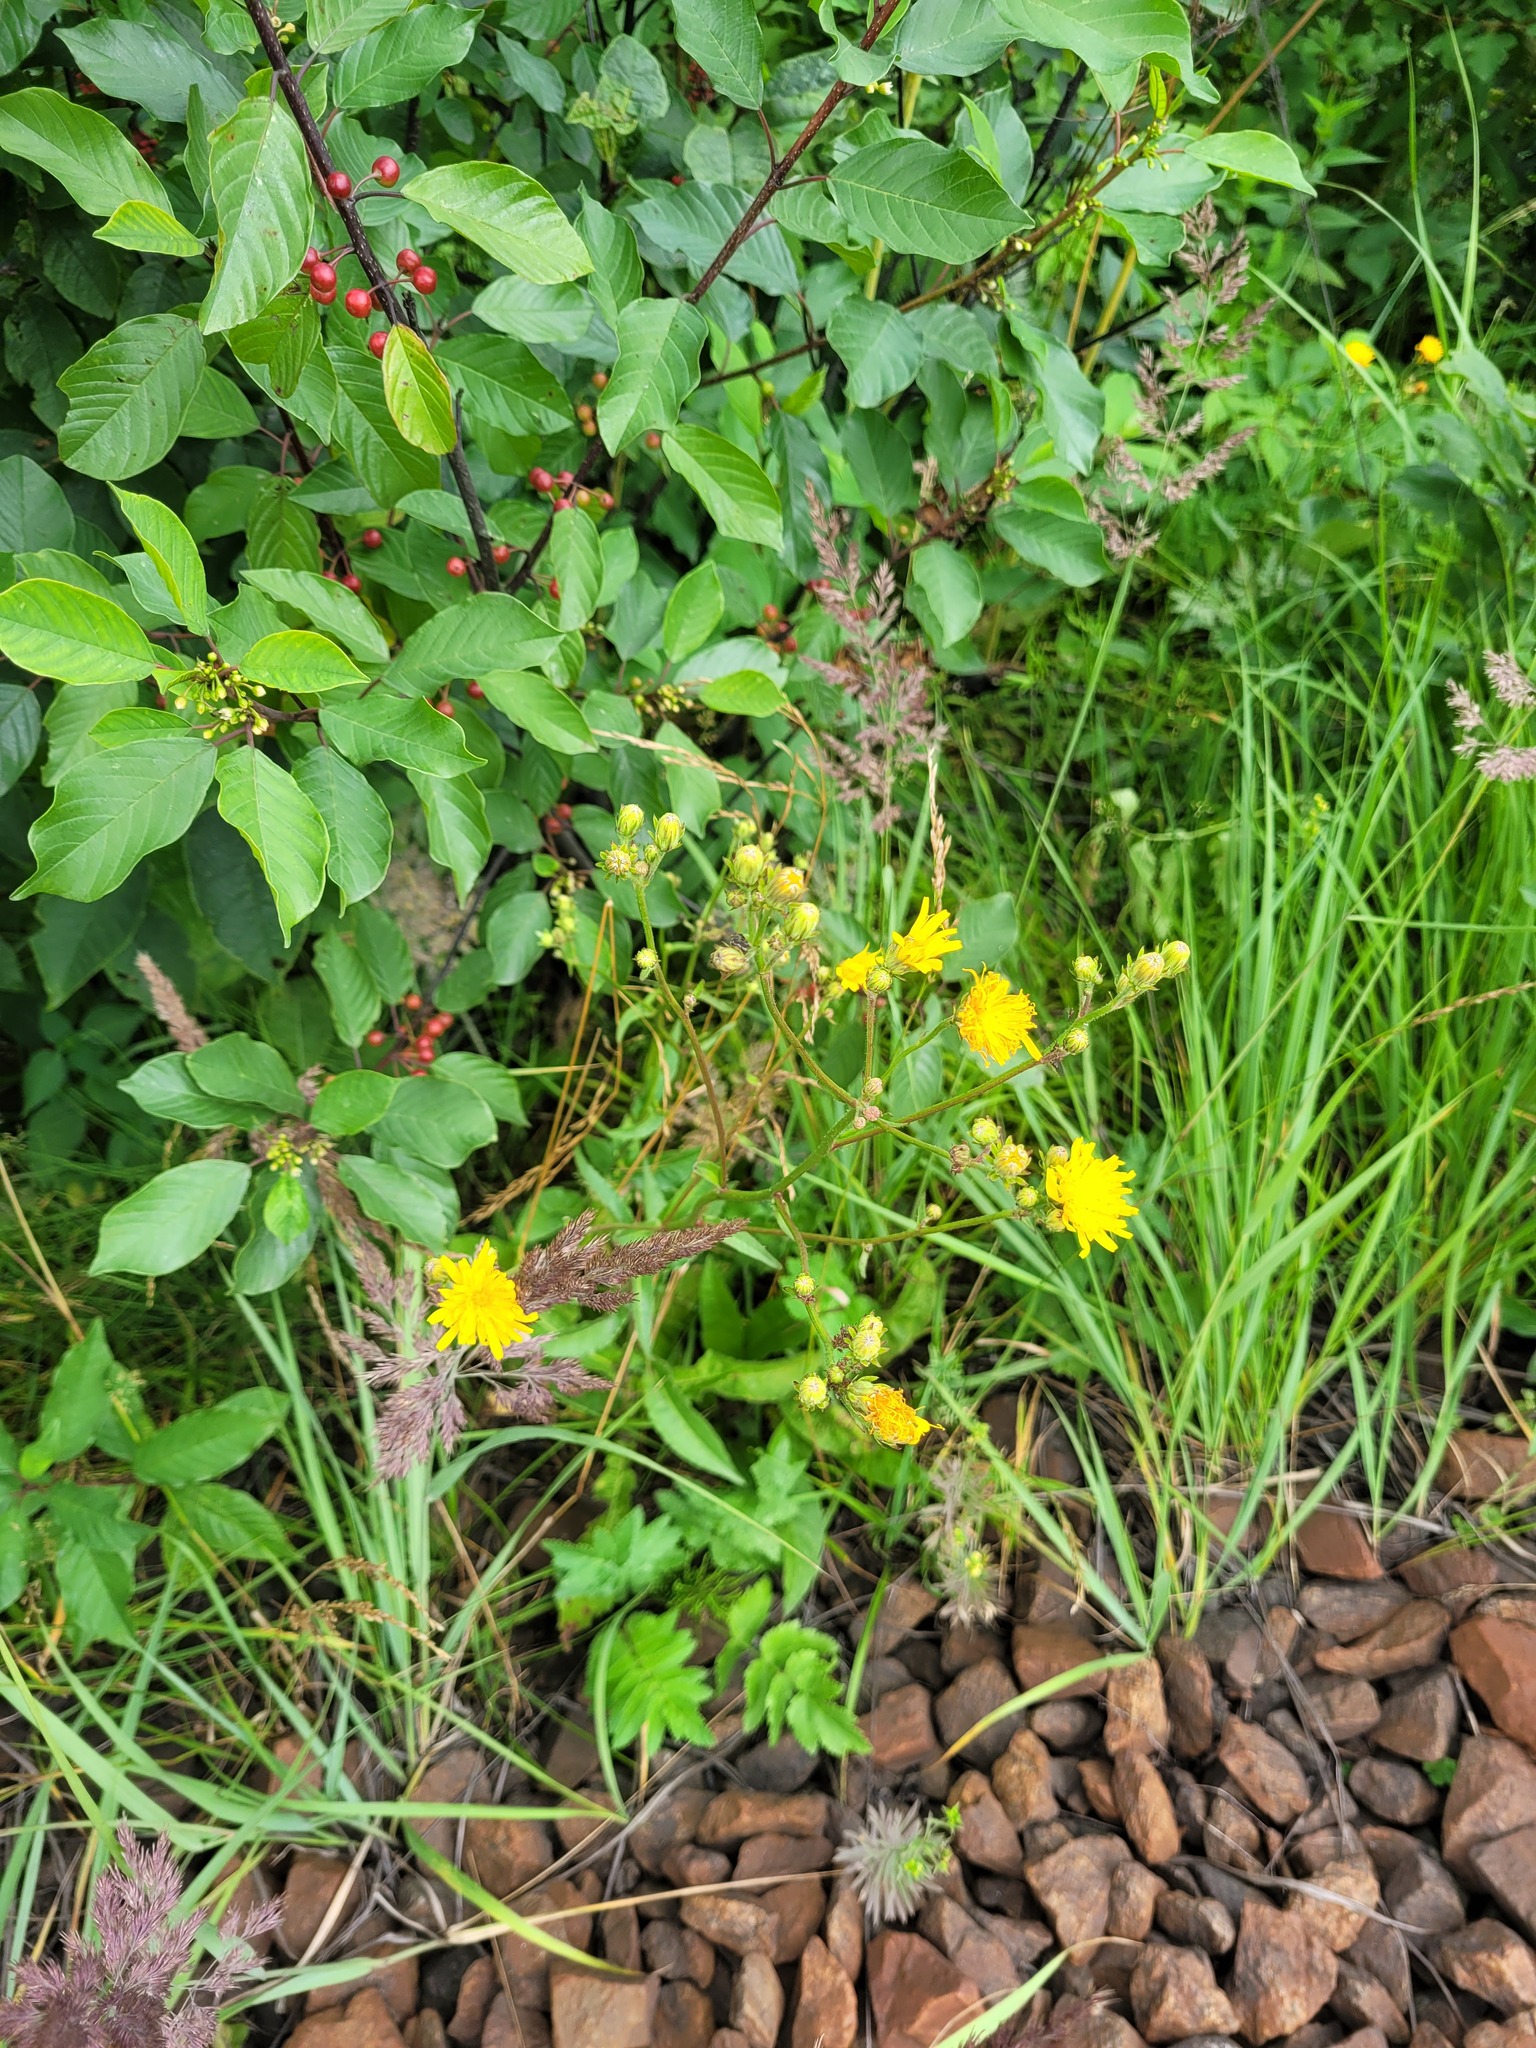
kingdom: Plantae
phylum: Tracheophyta
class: Magnoliopsida
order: Asterales
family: Asteraceae
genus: Picris
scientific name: Picris hieracioides
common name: Hawkweed oxtongue
